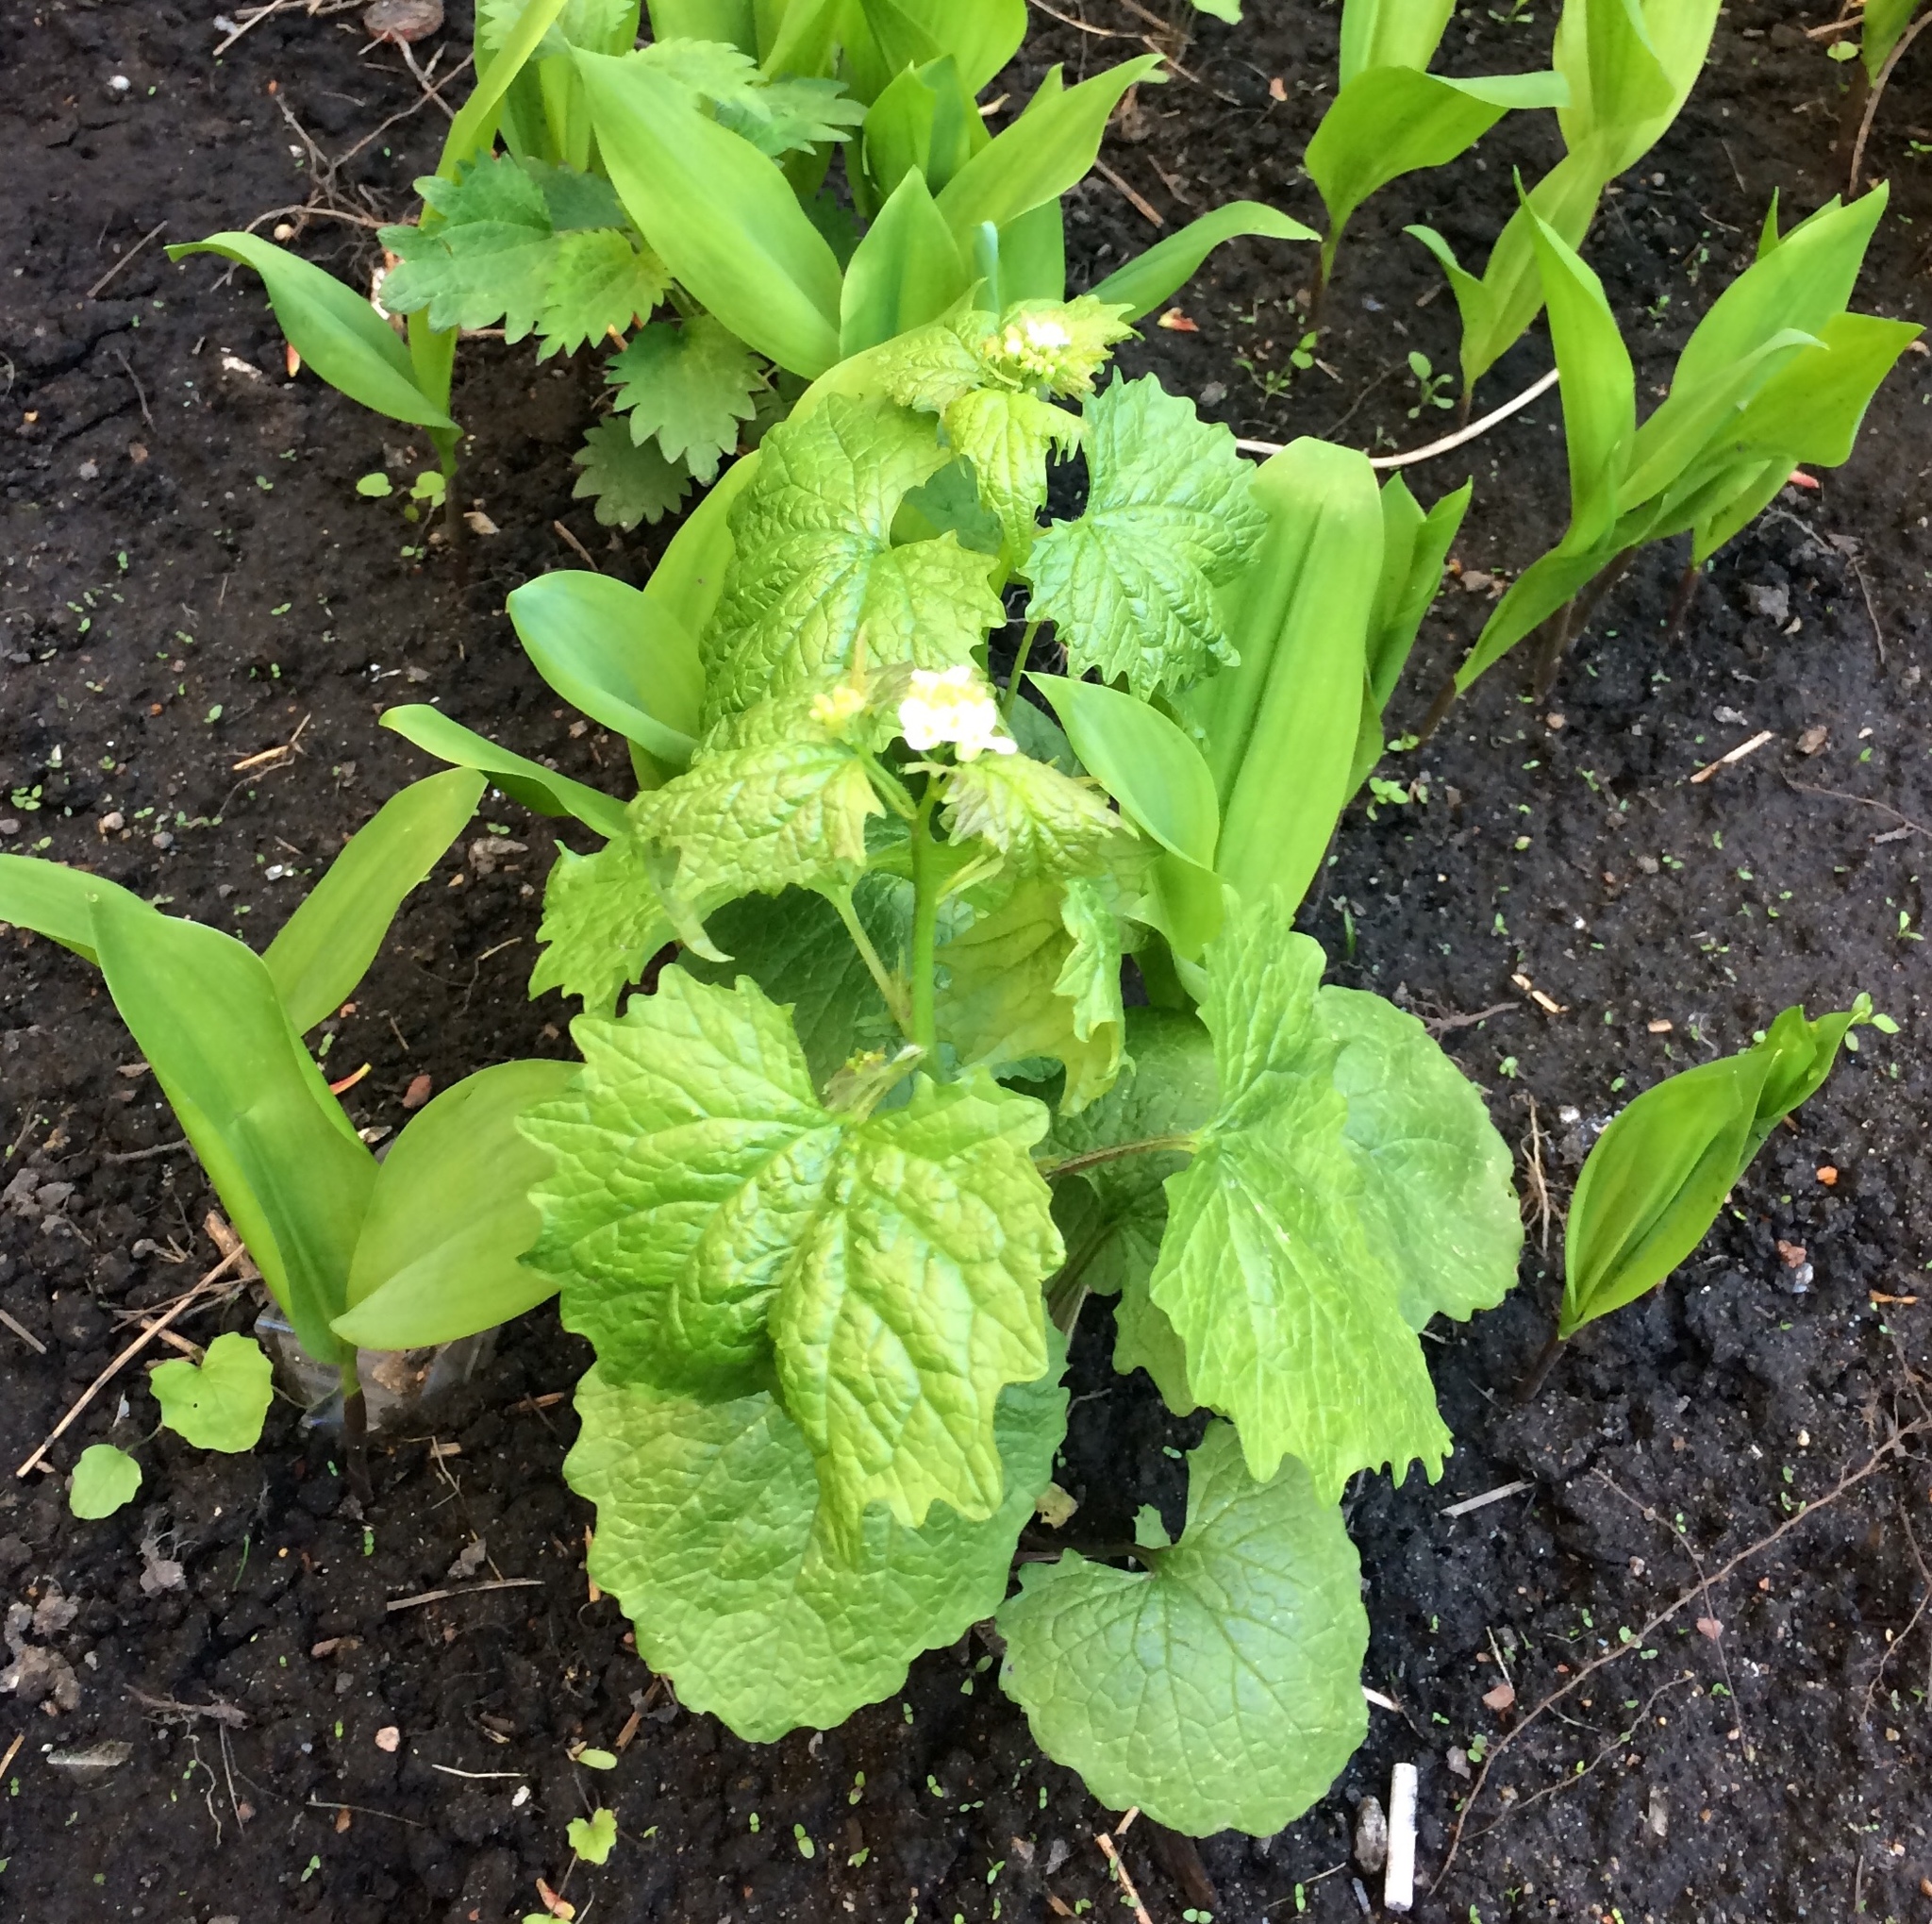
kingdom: Plantae
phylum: Tracheophyta
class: Magnoliopsida
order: Brassicales
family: Brassicaceae
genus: Alliaria
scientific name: Alliaria petiolata
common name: Garlic mustard
